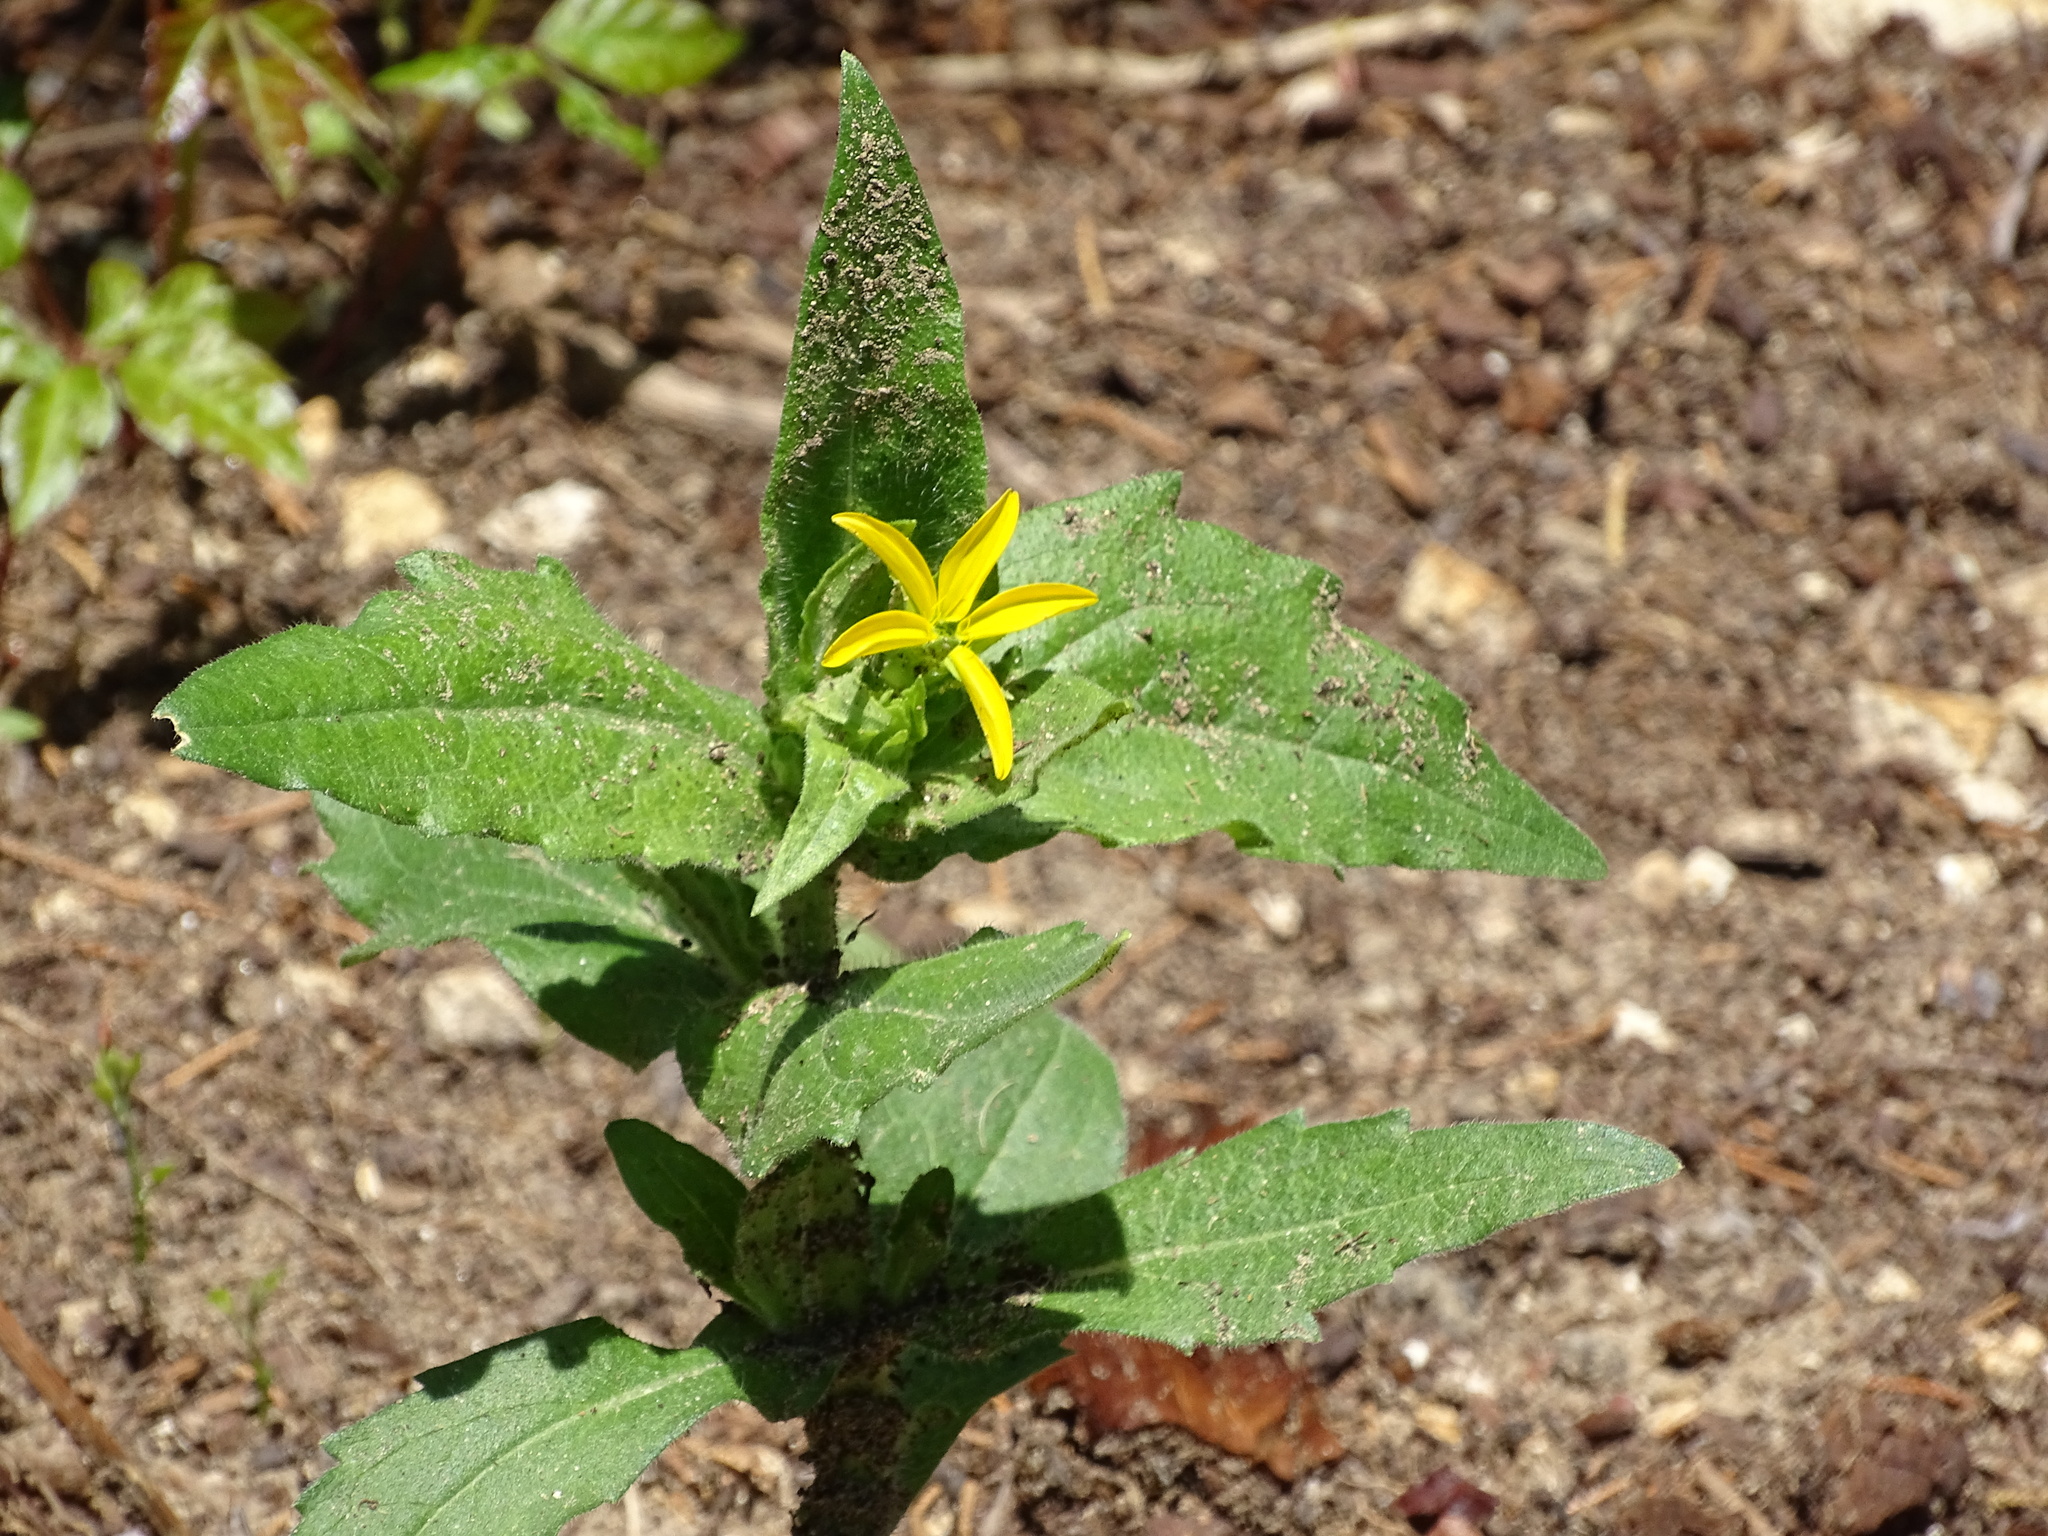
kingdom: Plantae
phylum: Tracheophyta
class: Magnoliopsida
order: Asterales
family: Asteraceae
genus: Lindheimera
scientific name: Lindheimera texana
